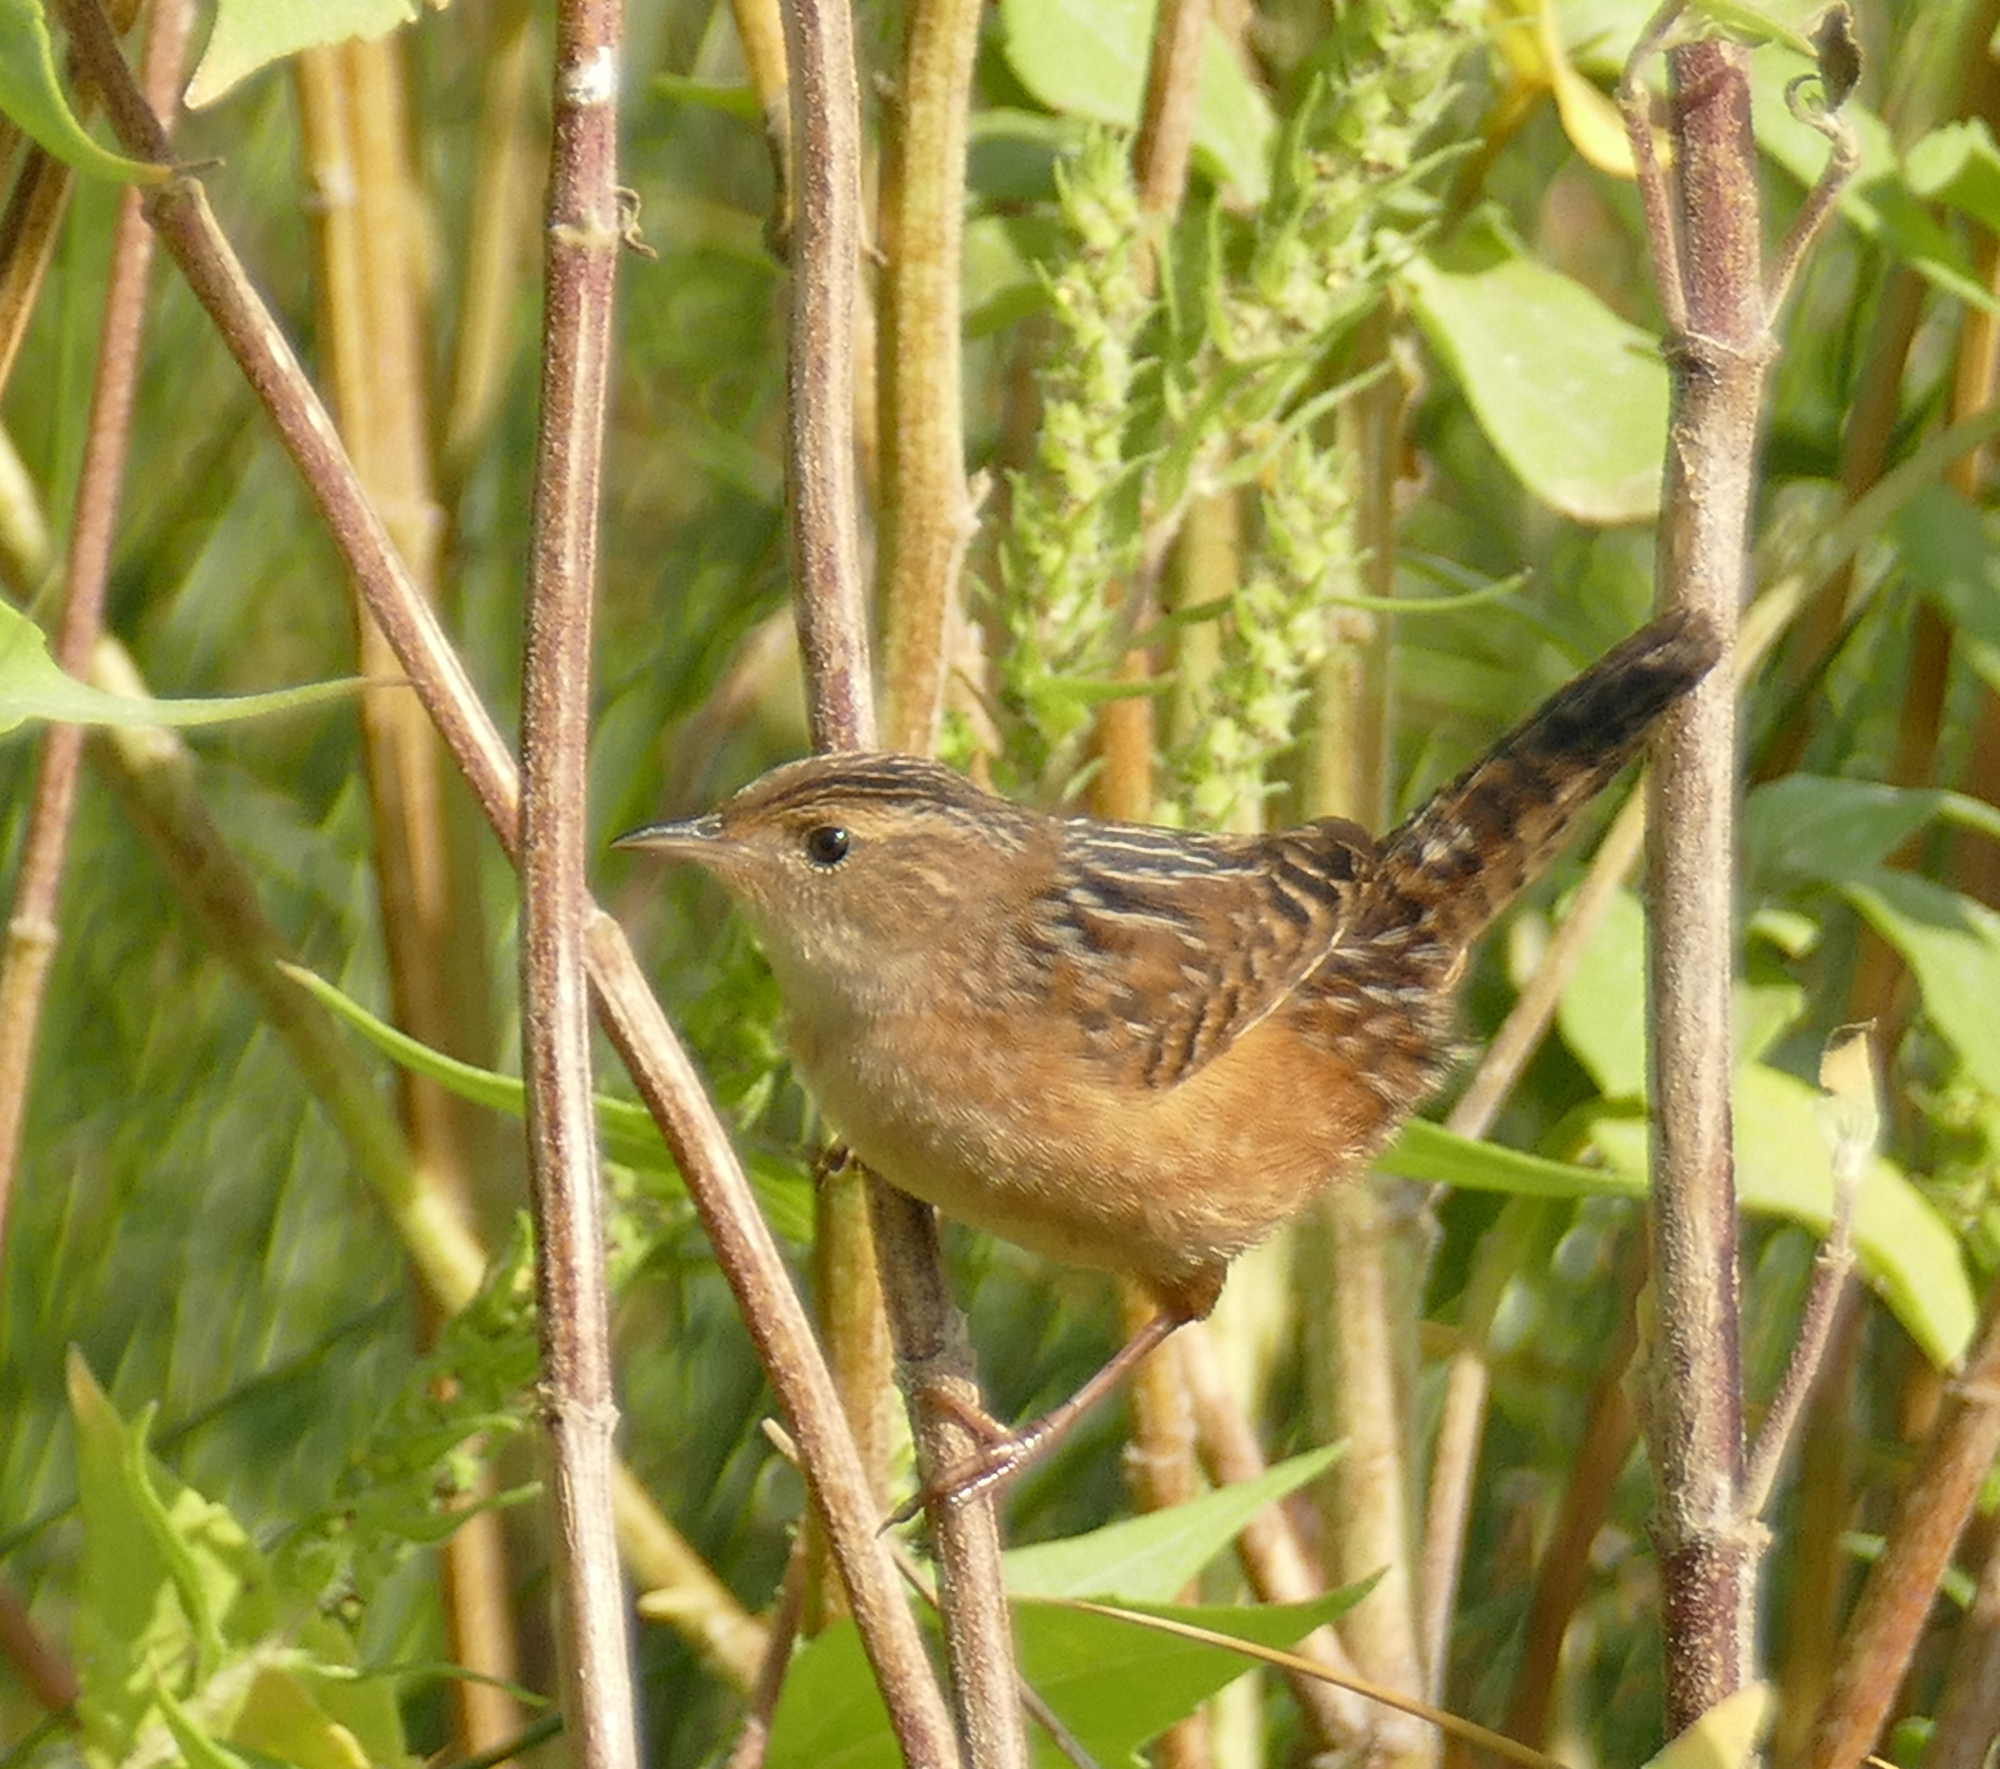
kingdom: Animalia
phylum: Chordata
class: Aves
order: Passeriformes
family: Troglodytidae
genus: Cistothorus
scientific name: Cistothorus platensis
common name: Sedge wren
